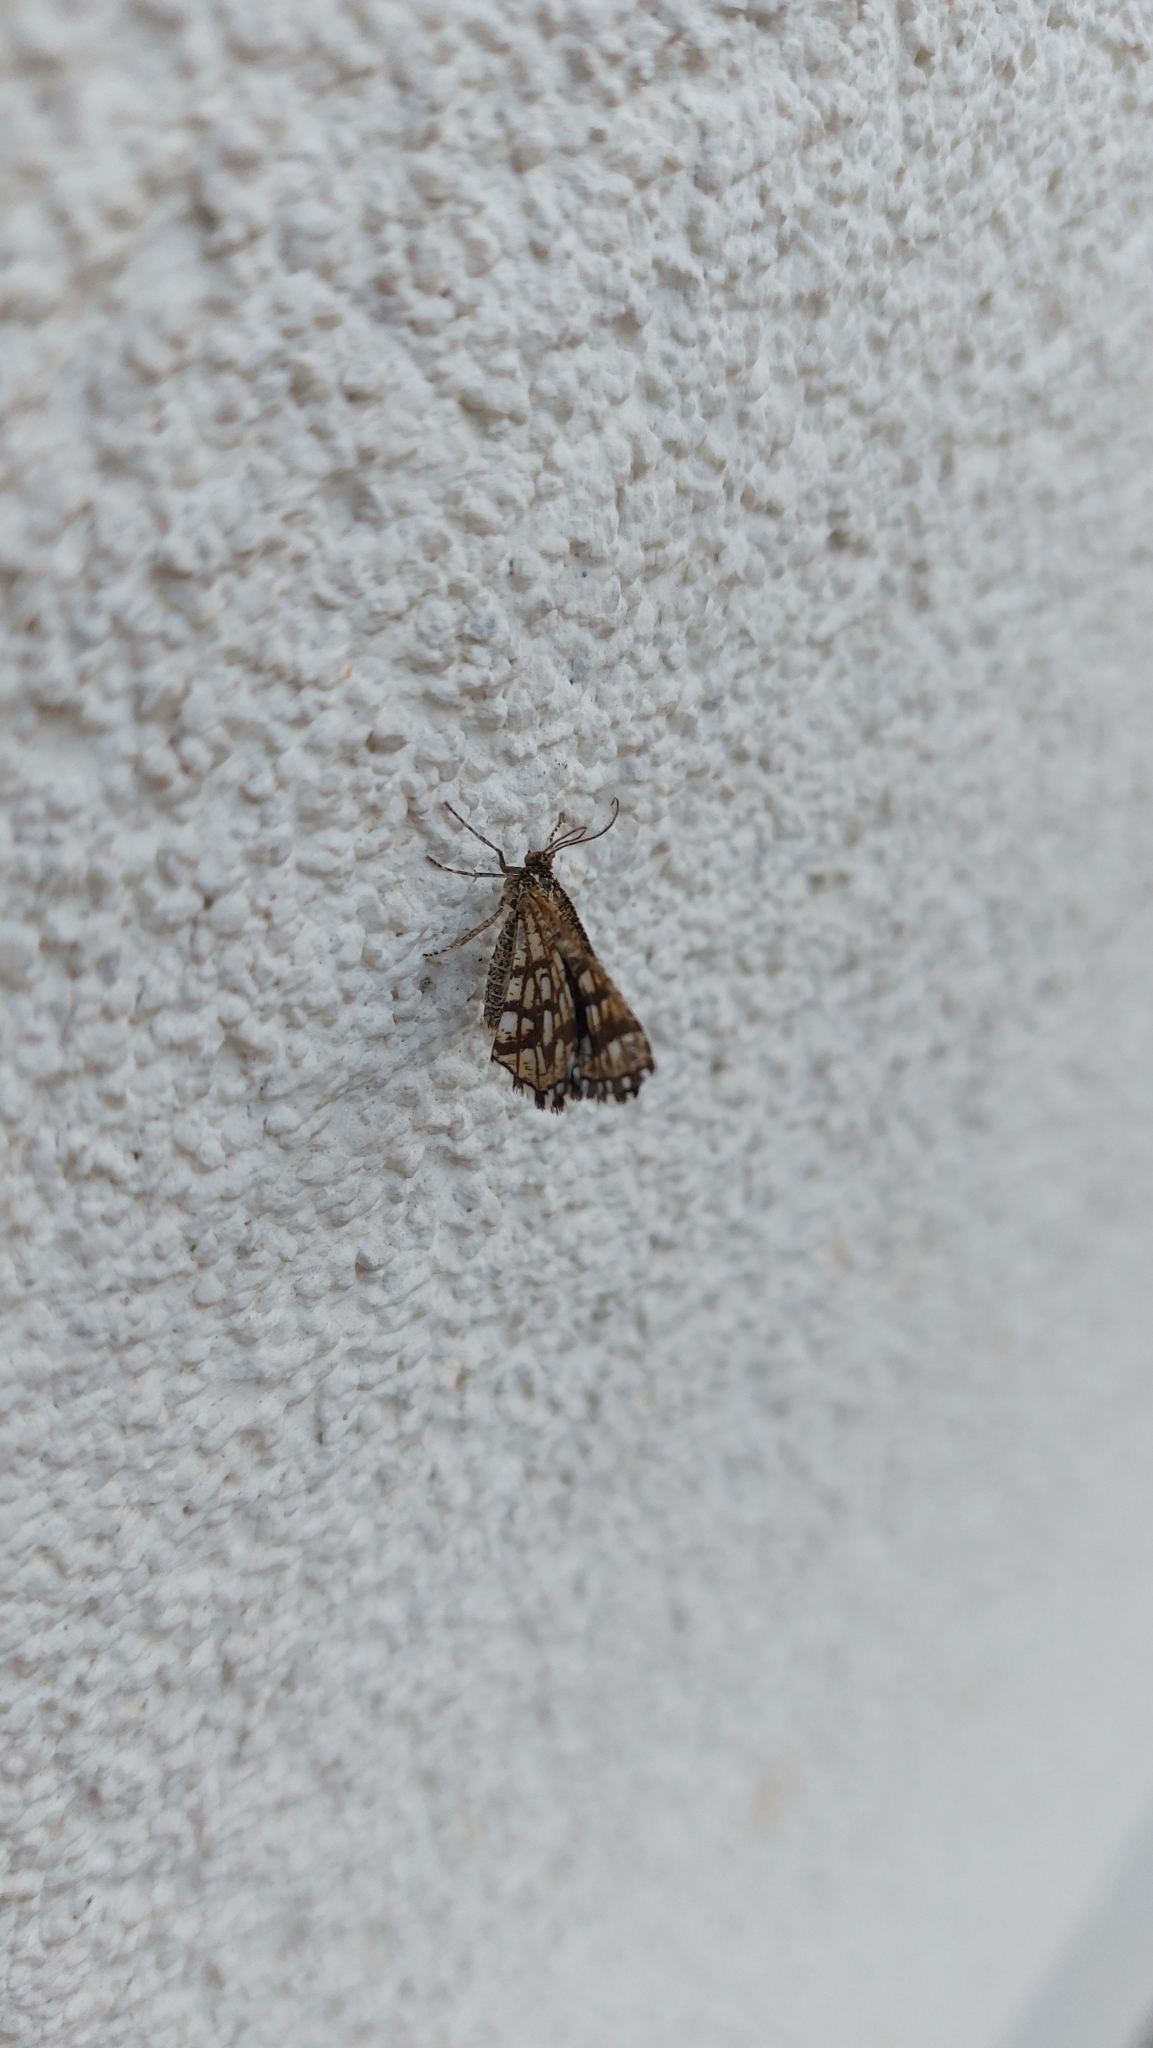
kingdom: Animalia
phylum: Arthropoda
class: Insecta
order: Lepidoptera
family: Geometridae
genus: Chiasmia
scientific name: Chiasmia clathrata
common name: Latticed heath
